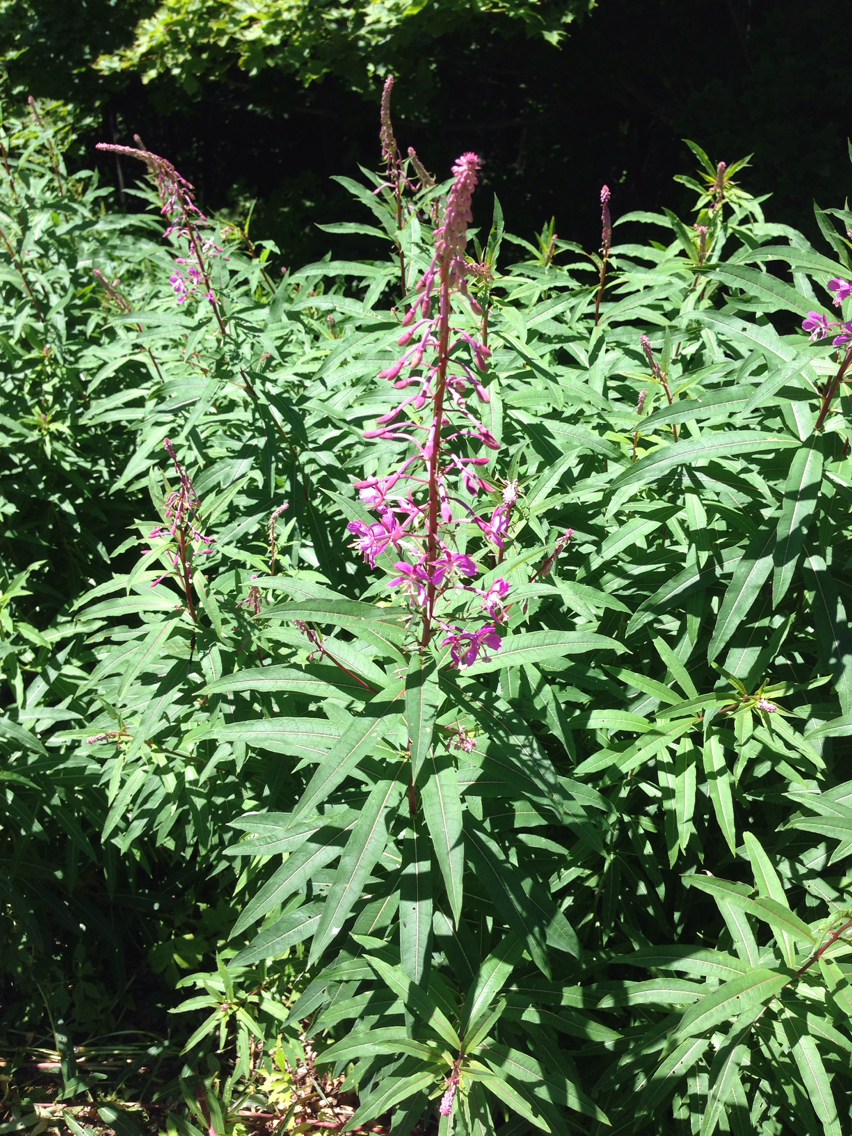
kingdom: Plantae
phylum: Tracheophyta
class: Magnoliopsida
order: Myrtales
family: Onagraceae
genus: Chamaenerion
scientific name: Chamaenerion angustifolium
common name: Fireweed
